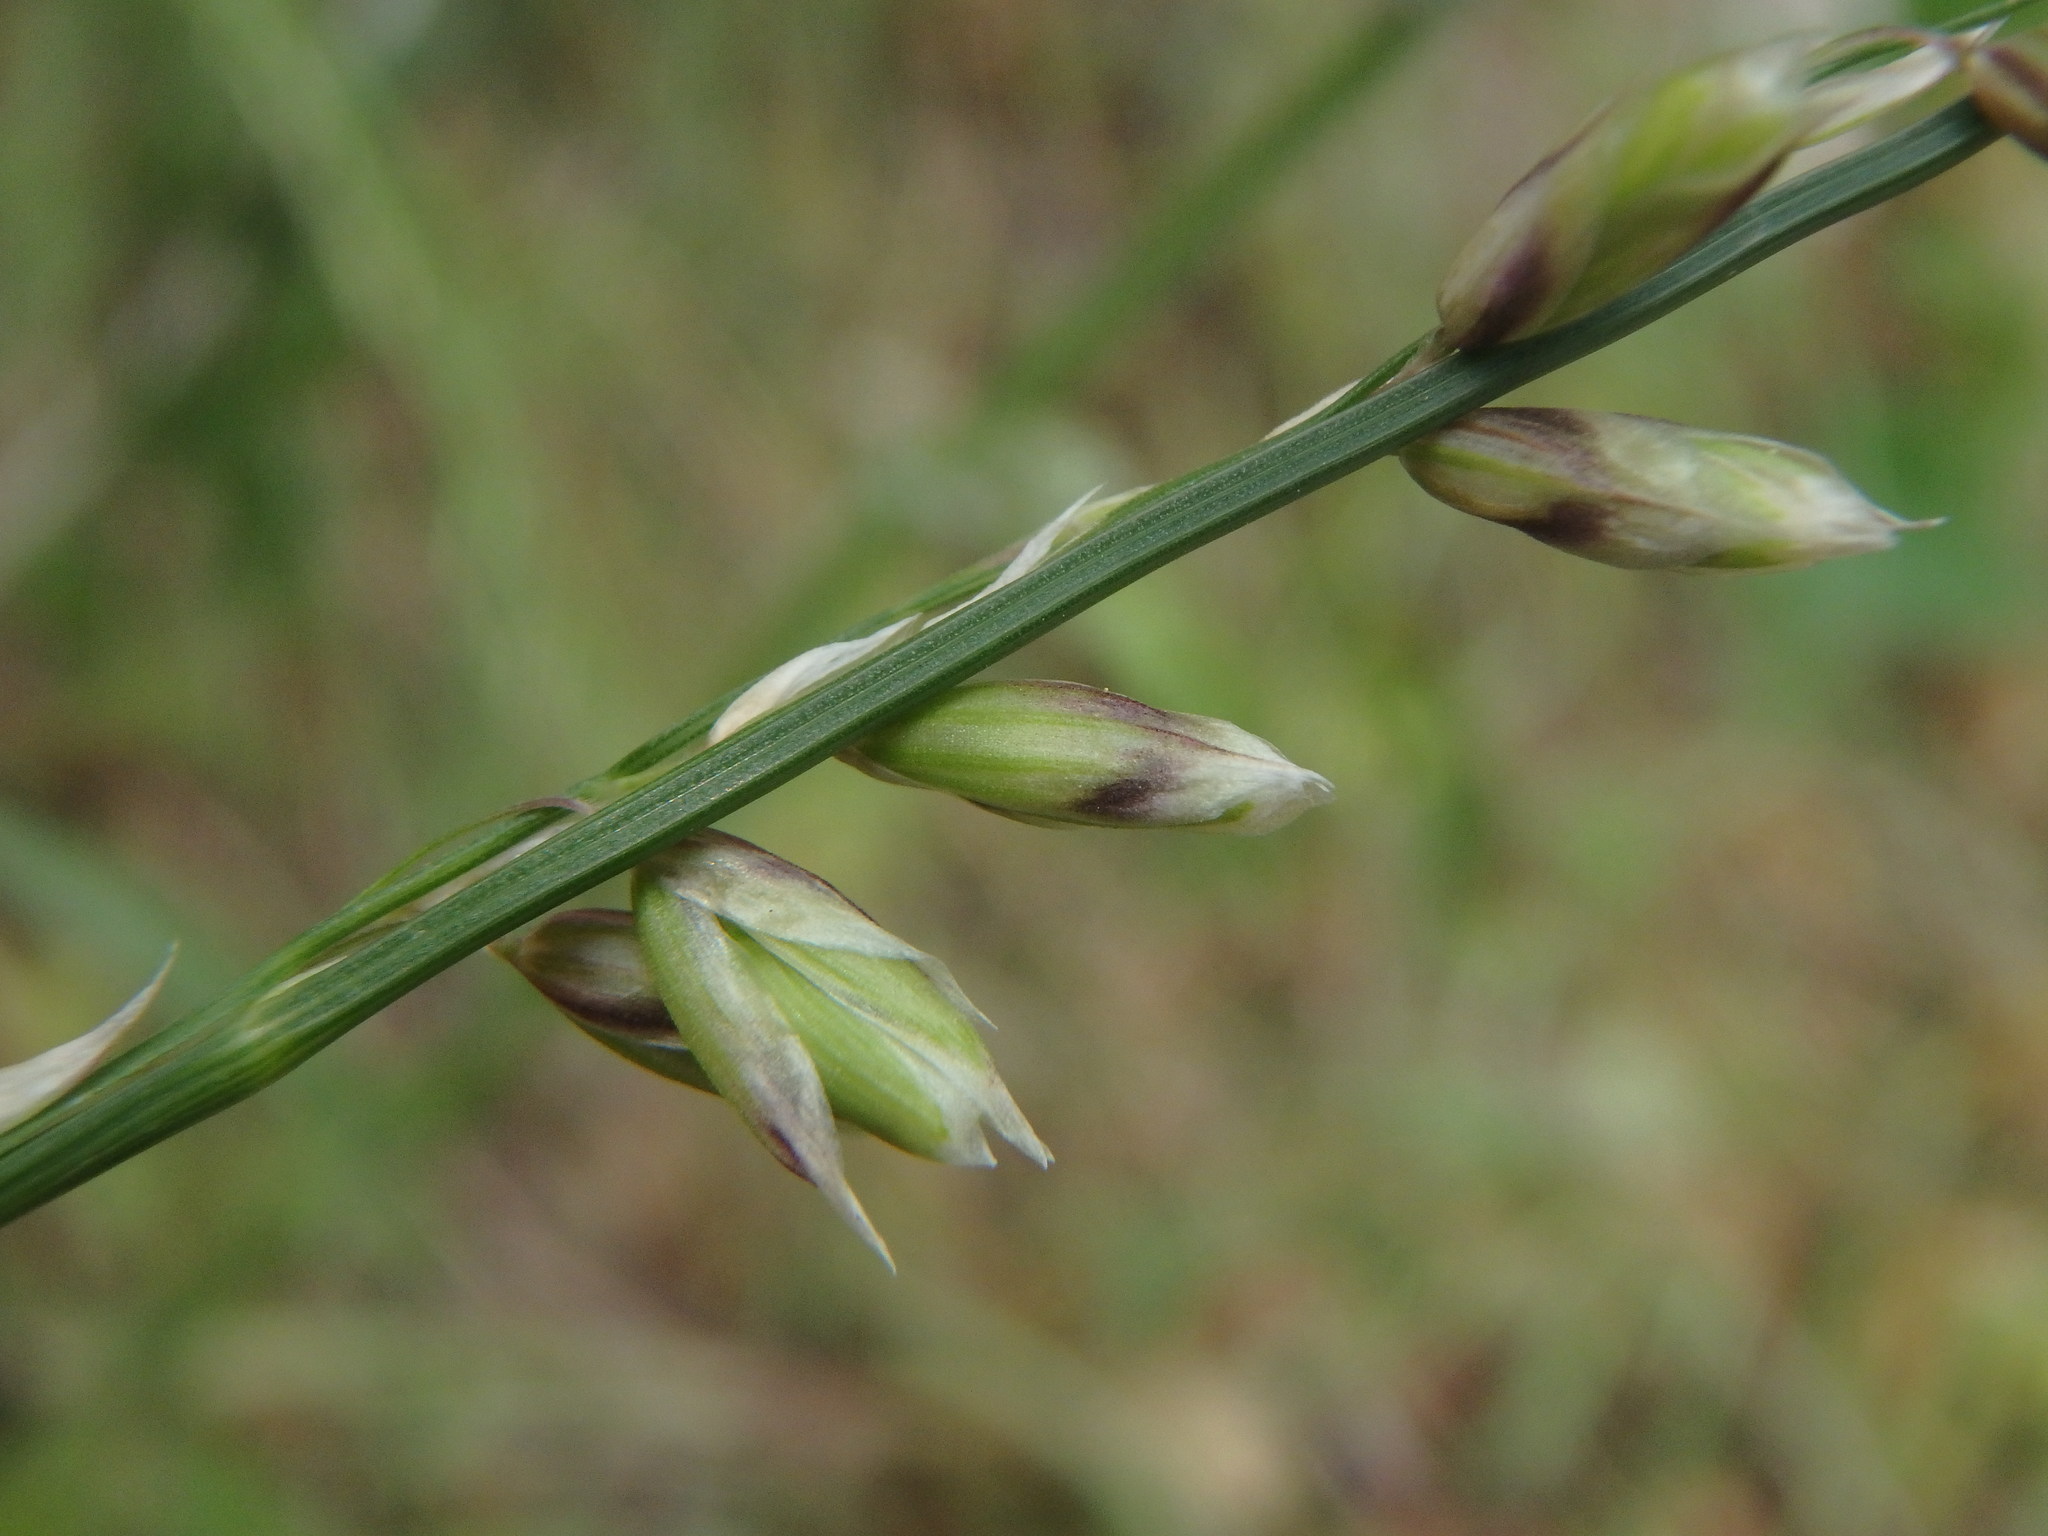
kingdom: Plantae
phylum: Tracheophyta
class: Liliopsida
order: Poales
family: Poaceae
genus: Melica
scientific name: Melica minuta
